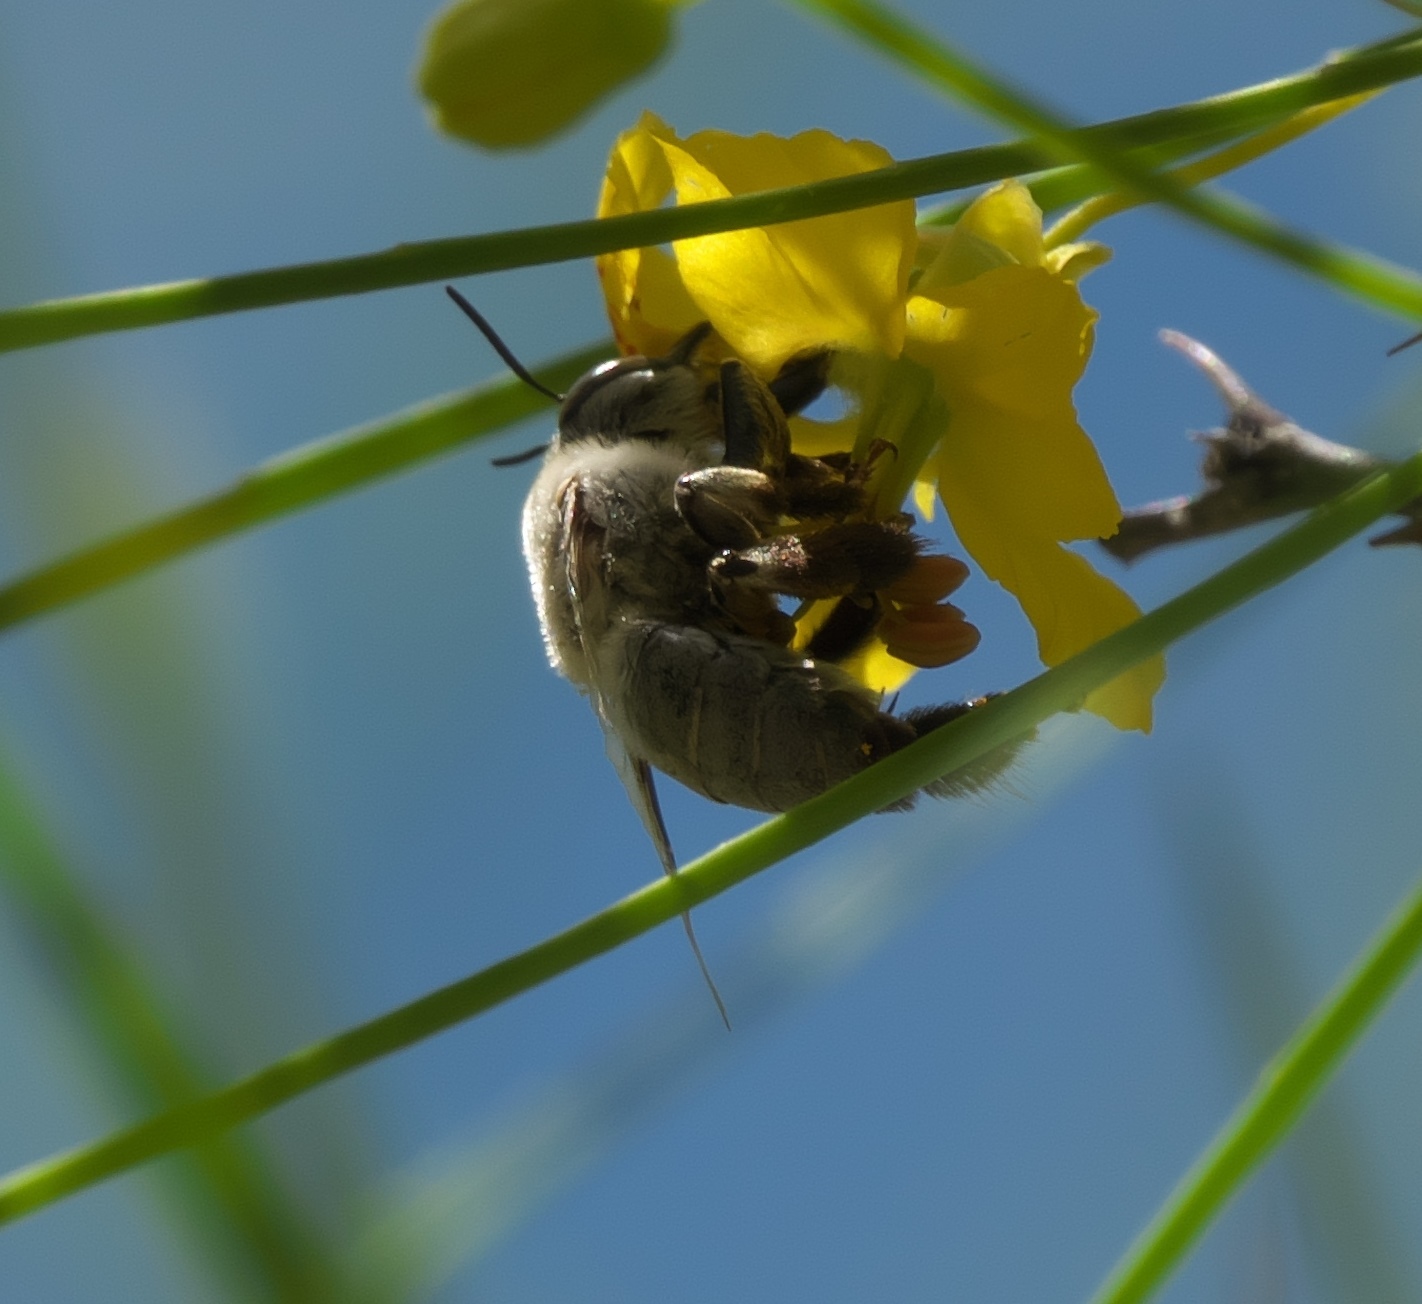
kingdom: Animalia
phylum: Arthropoda
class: Insecta
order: Hymenoptera
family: Apidae
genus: Centris
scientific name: Centris pallida
